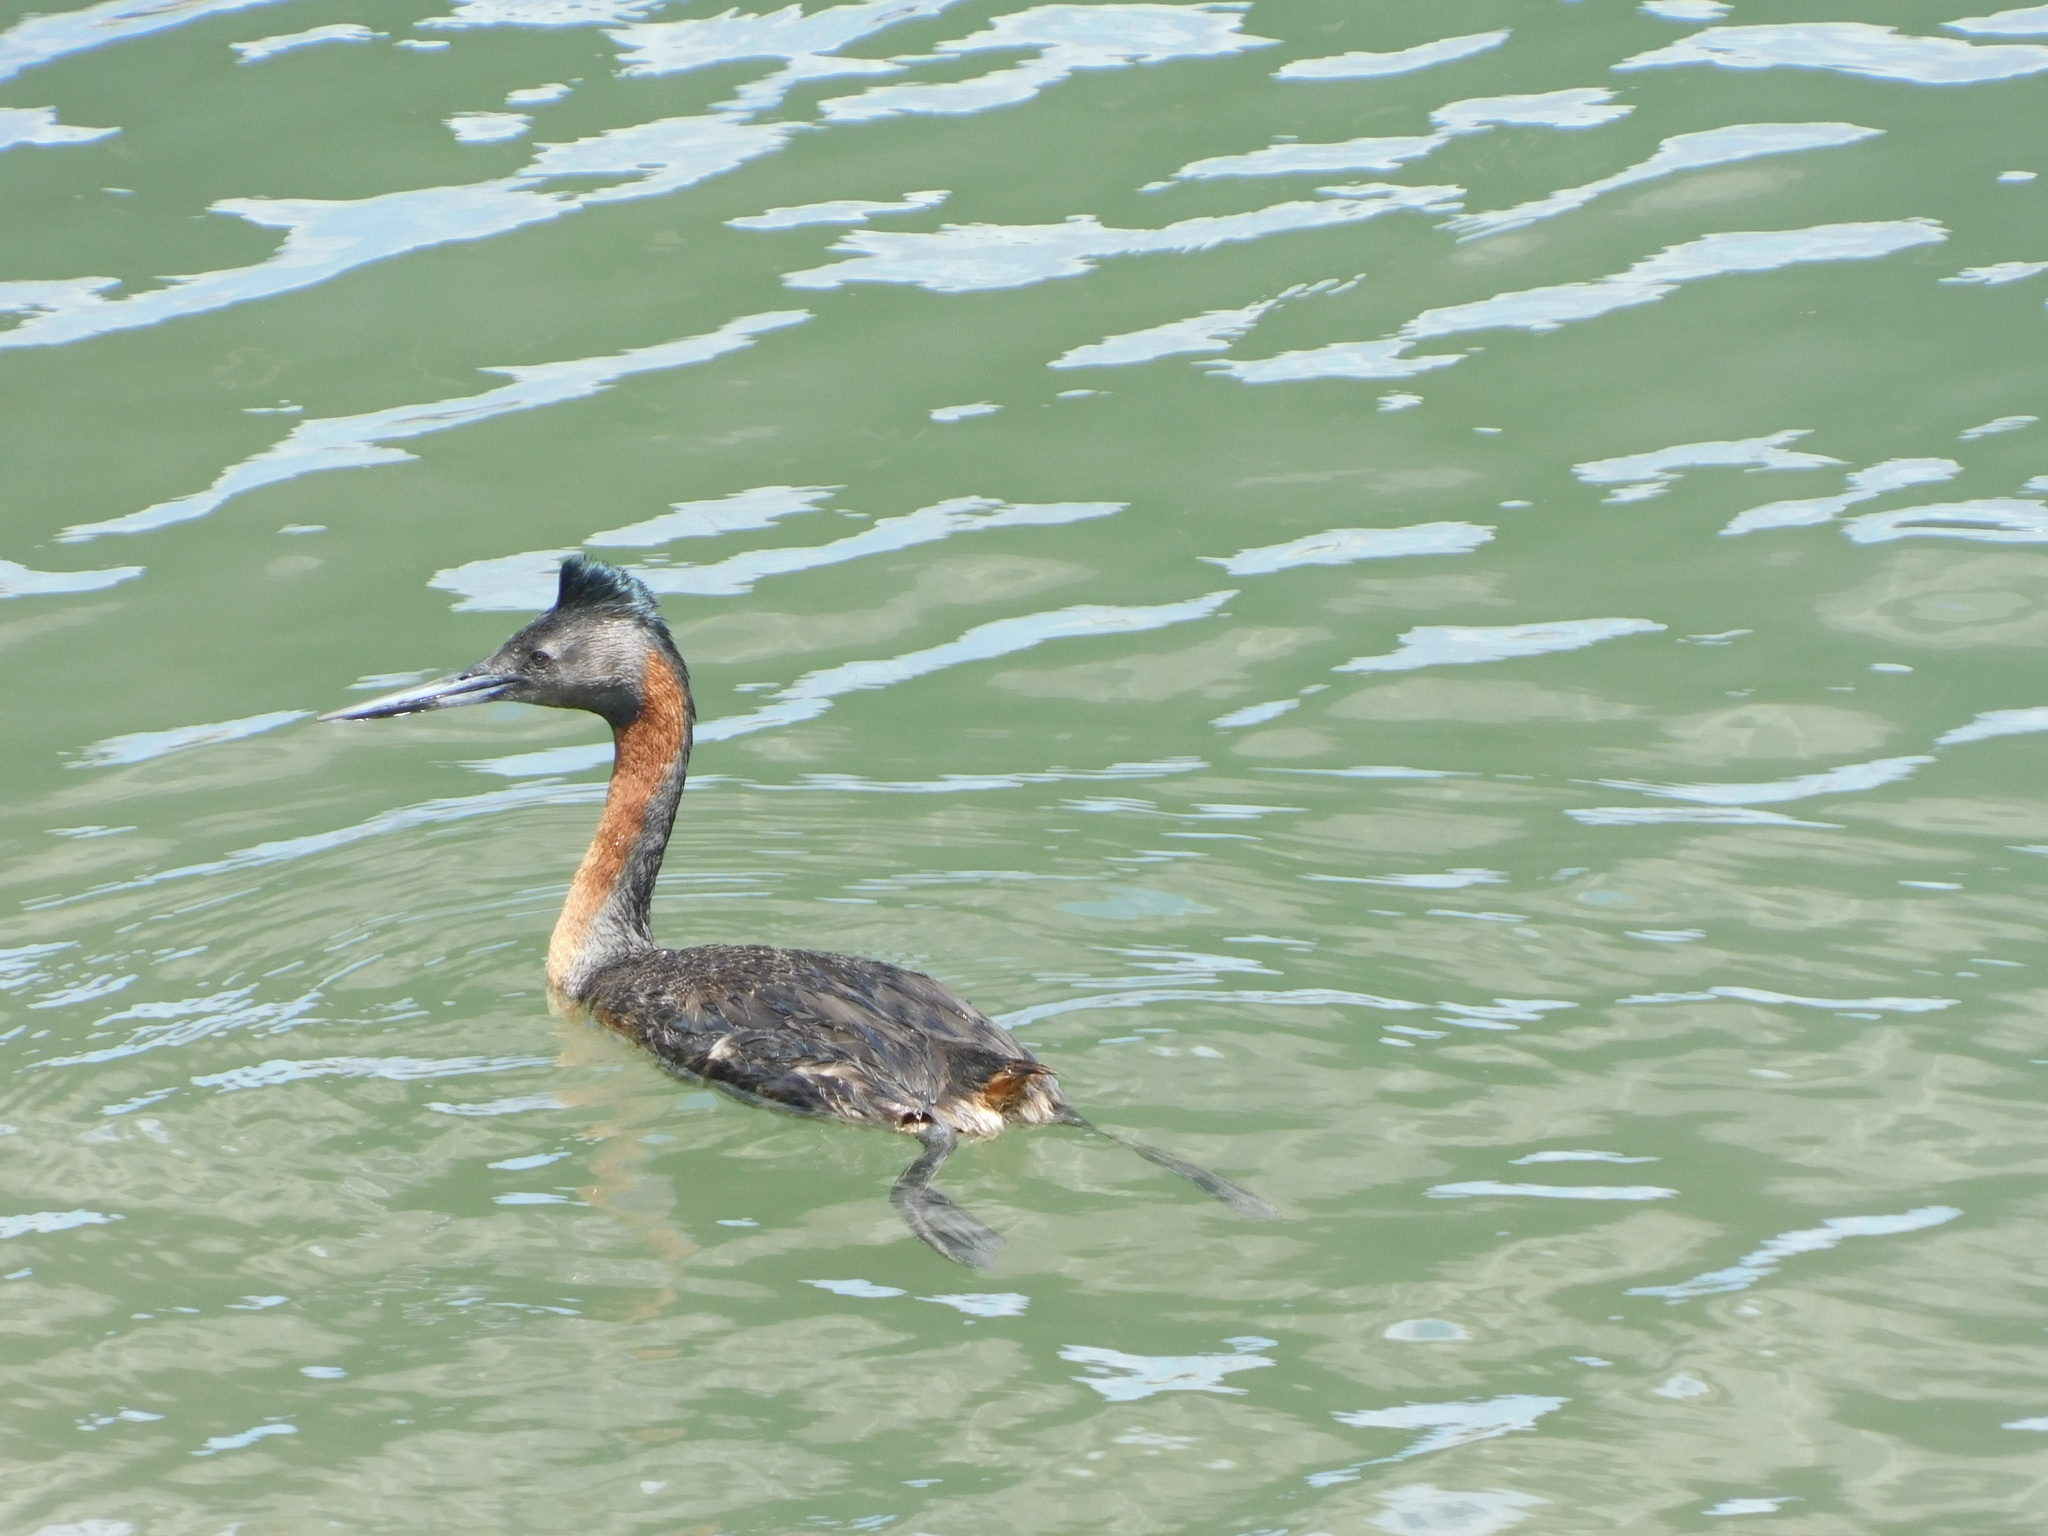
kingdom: Animalia
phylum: Chordata
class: Aves
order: Podicipediformes
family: Podicipedidae
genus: Podiceps
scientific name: Podiceps major
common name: Great grebe
